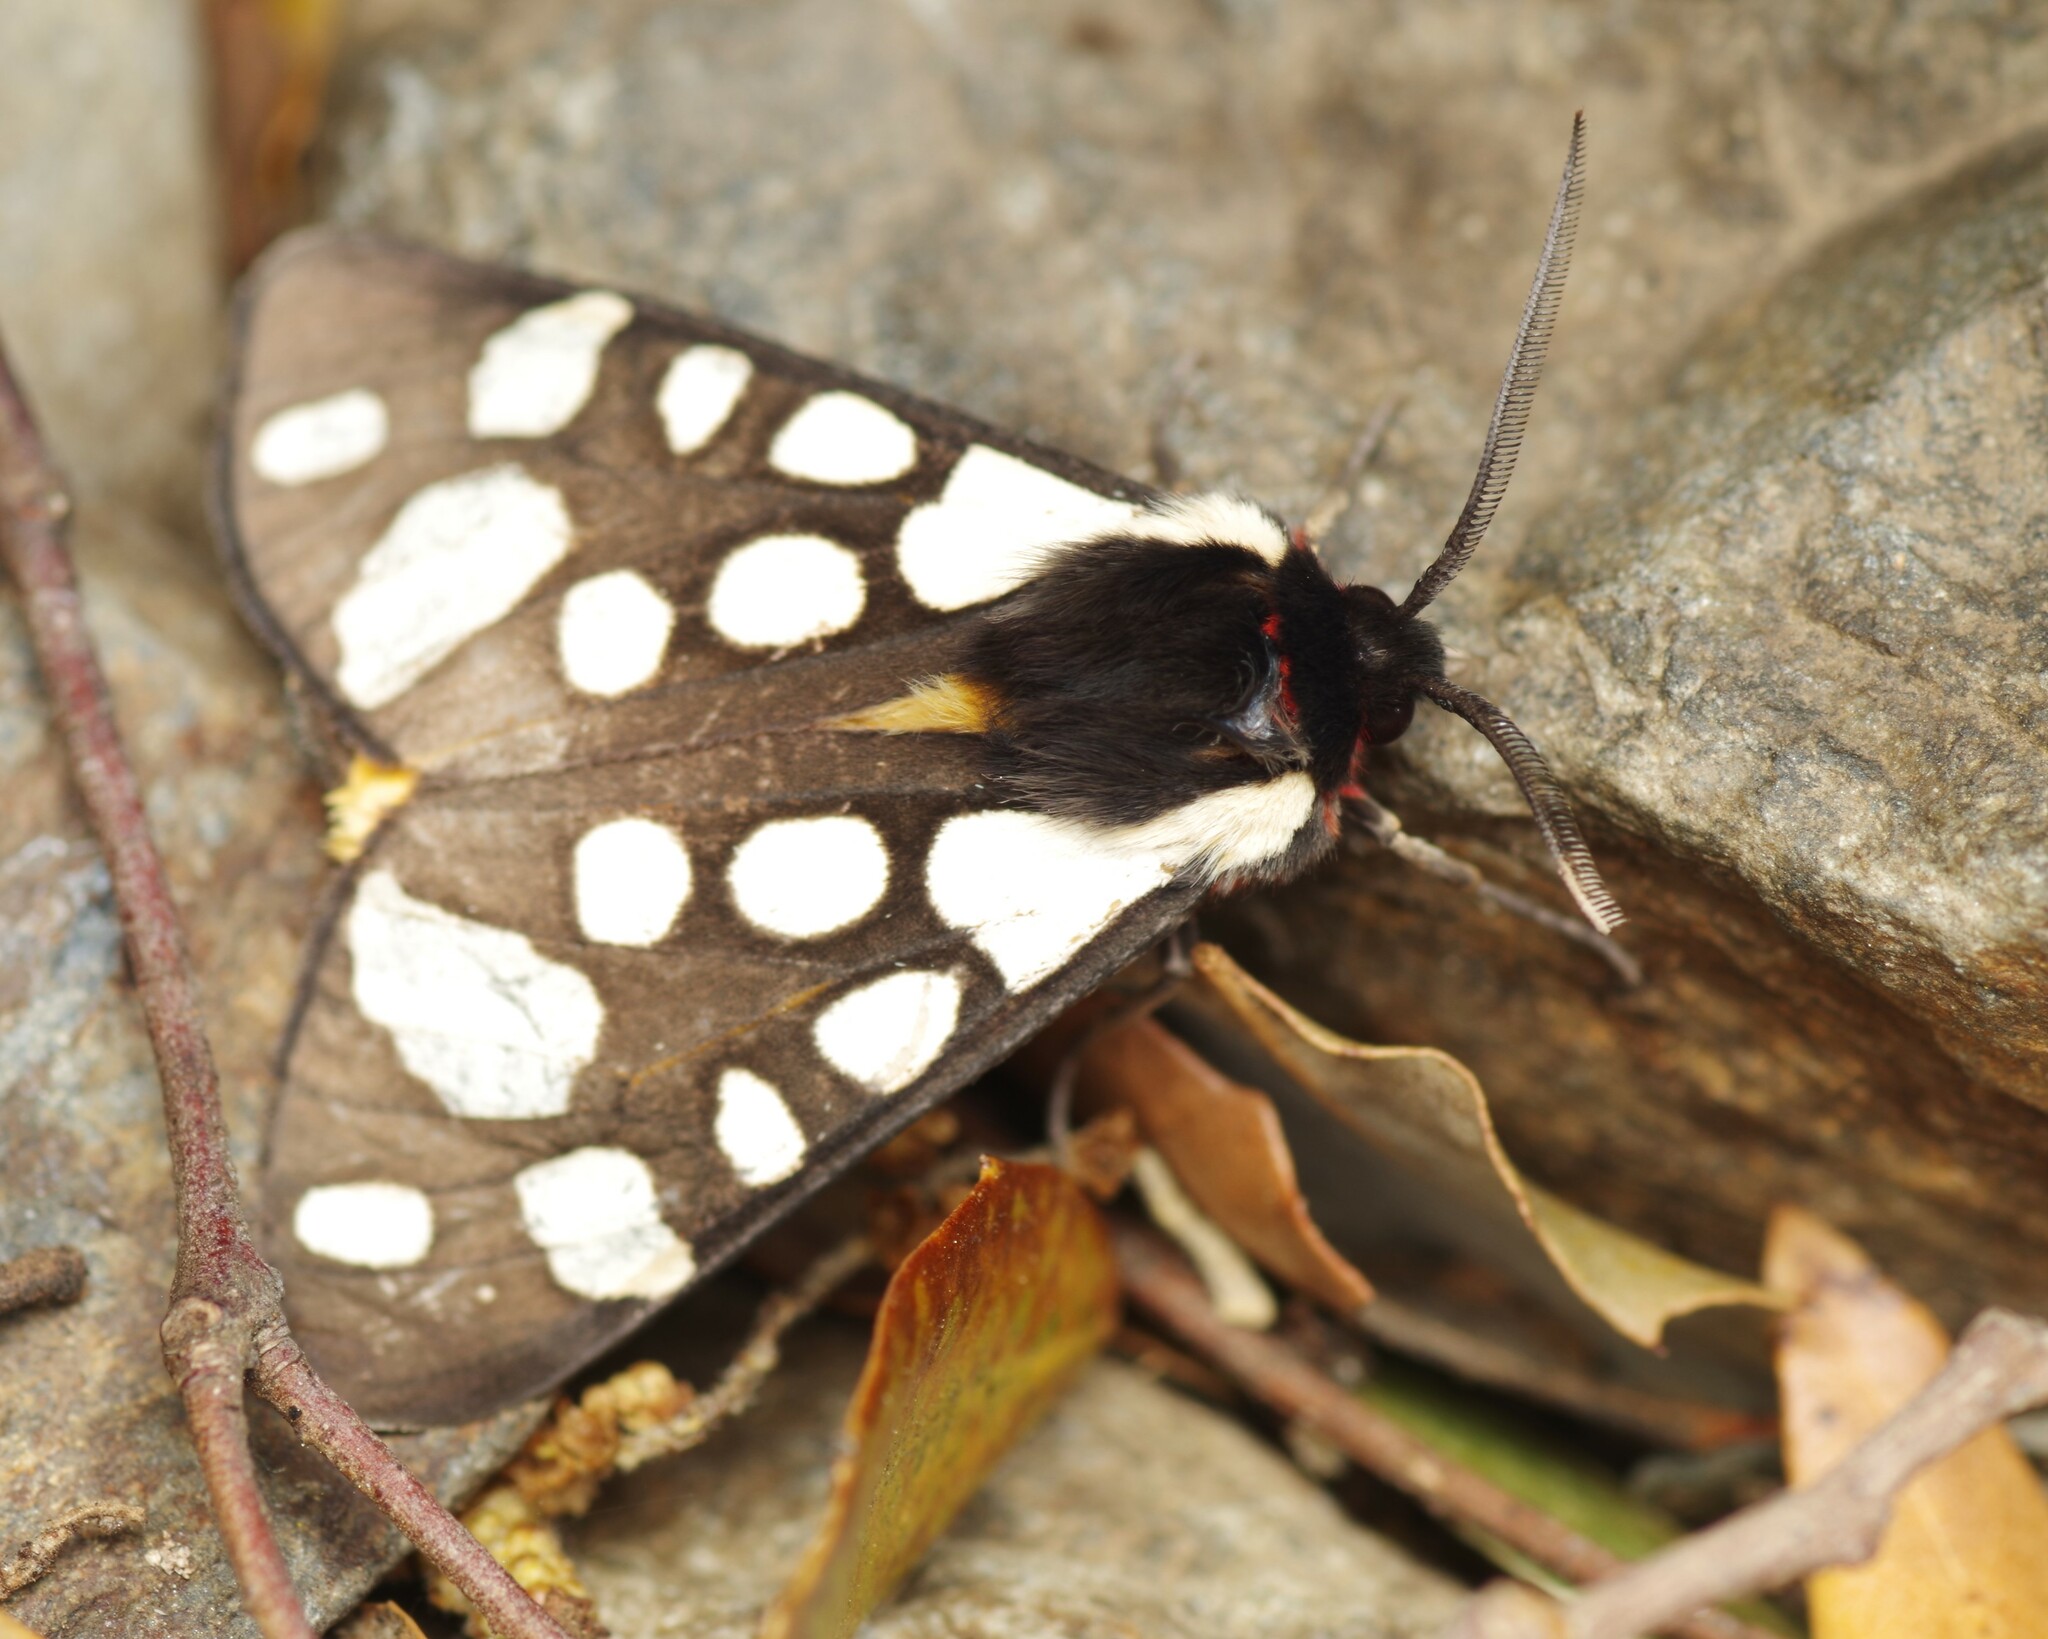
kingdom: Animalia
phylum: Arthropoda
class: Insecta
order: Lepidoptera
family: Erebidae
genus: Epicallia
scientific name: Epicallia villica
